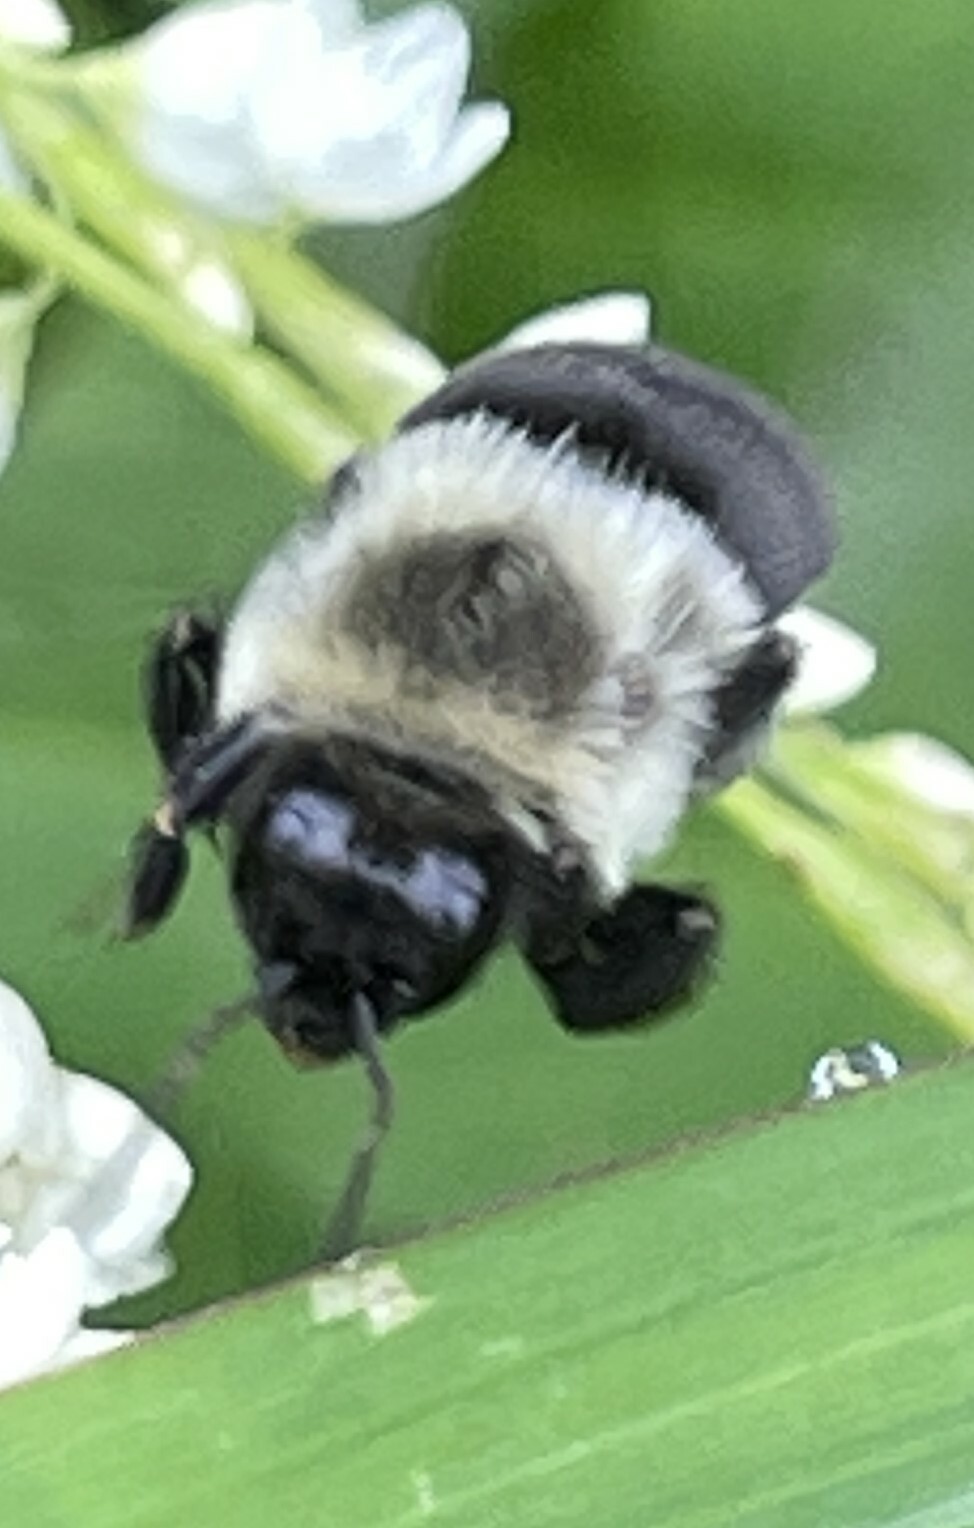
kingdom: Animalia
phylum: Arthropoda
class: Insecta
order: Hymenoptera
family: Apidae
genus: Bombus
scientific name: Bombus impatiens
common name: Common eastern bumble bee
